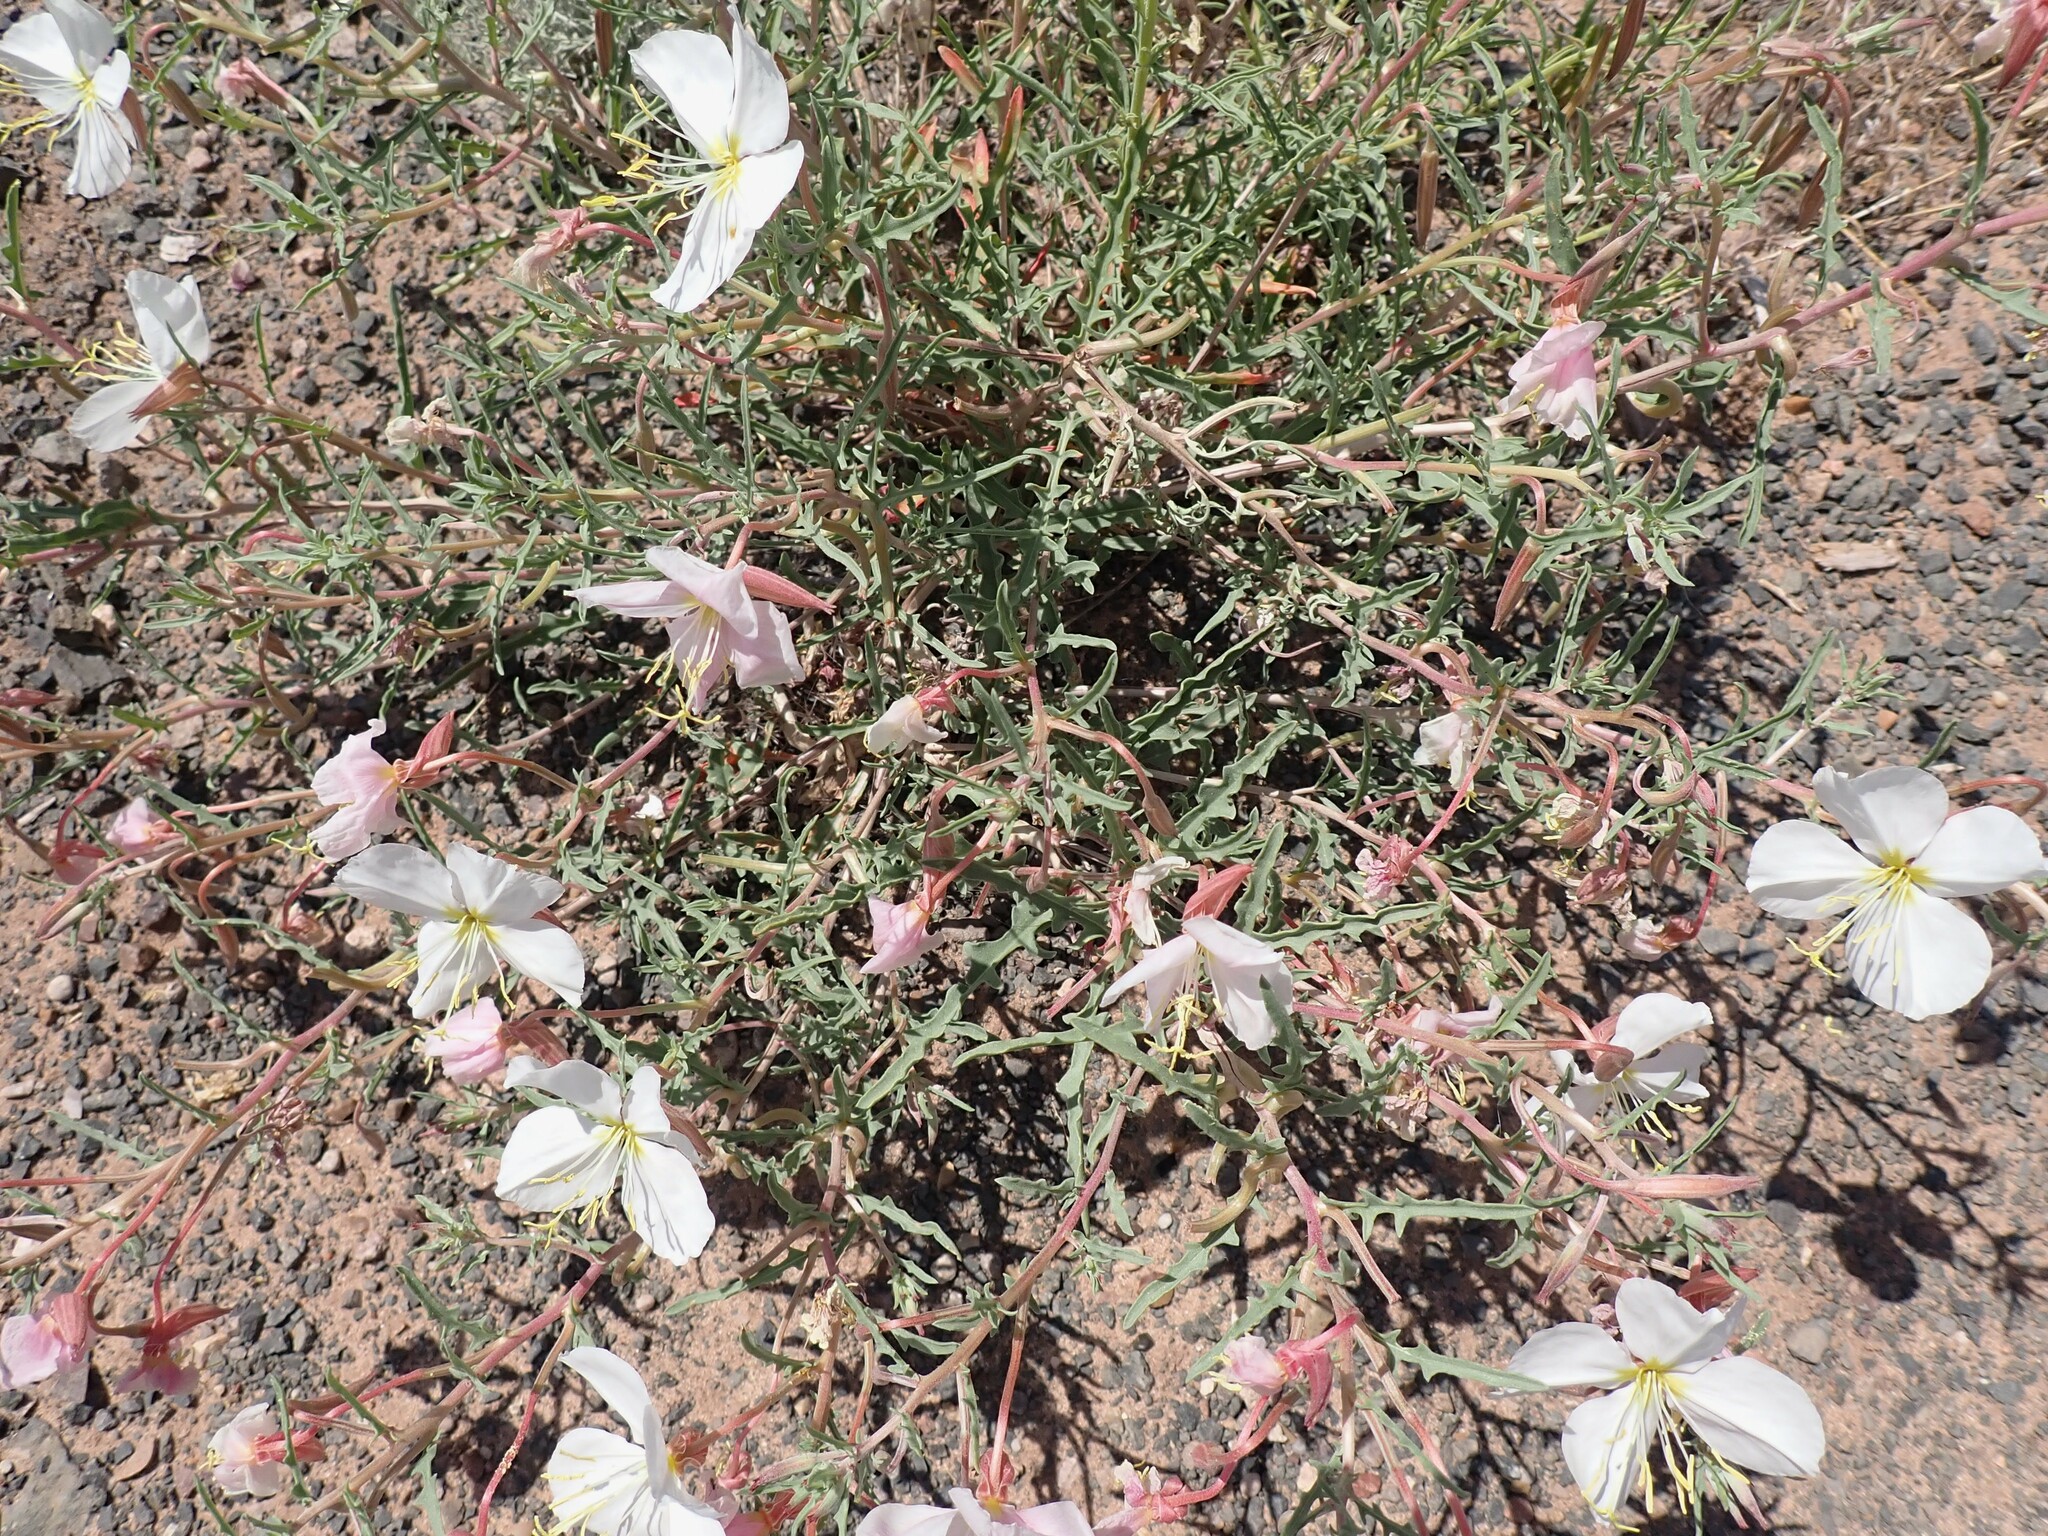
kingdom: Plantae
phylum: Tracheophyta
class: Magnoliopsida
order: Myrtales
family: Onagraceae
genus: Oenothera
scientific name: Oenothera pallida
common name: Pale evening-primrose
